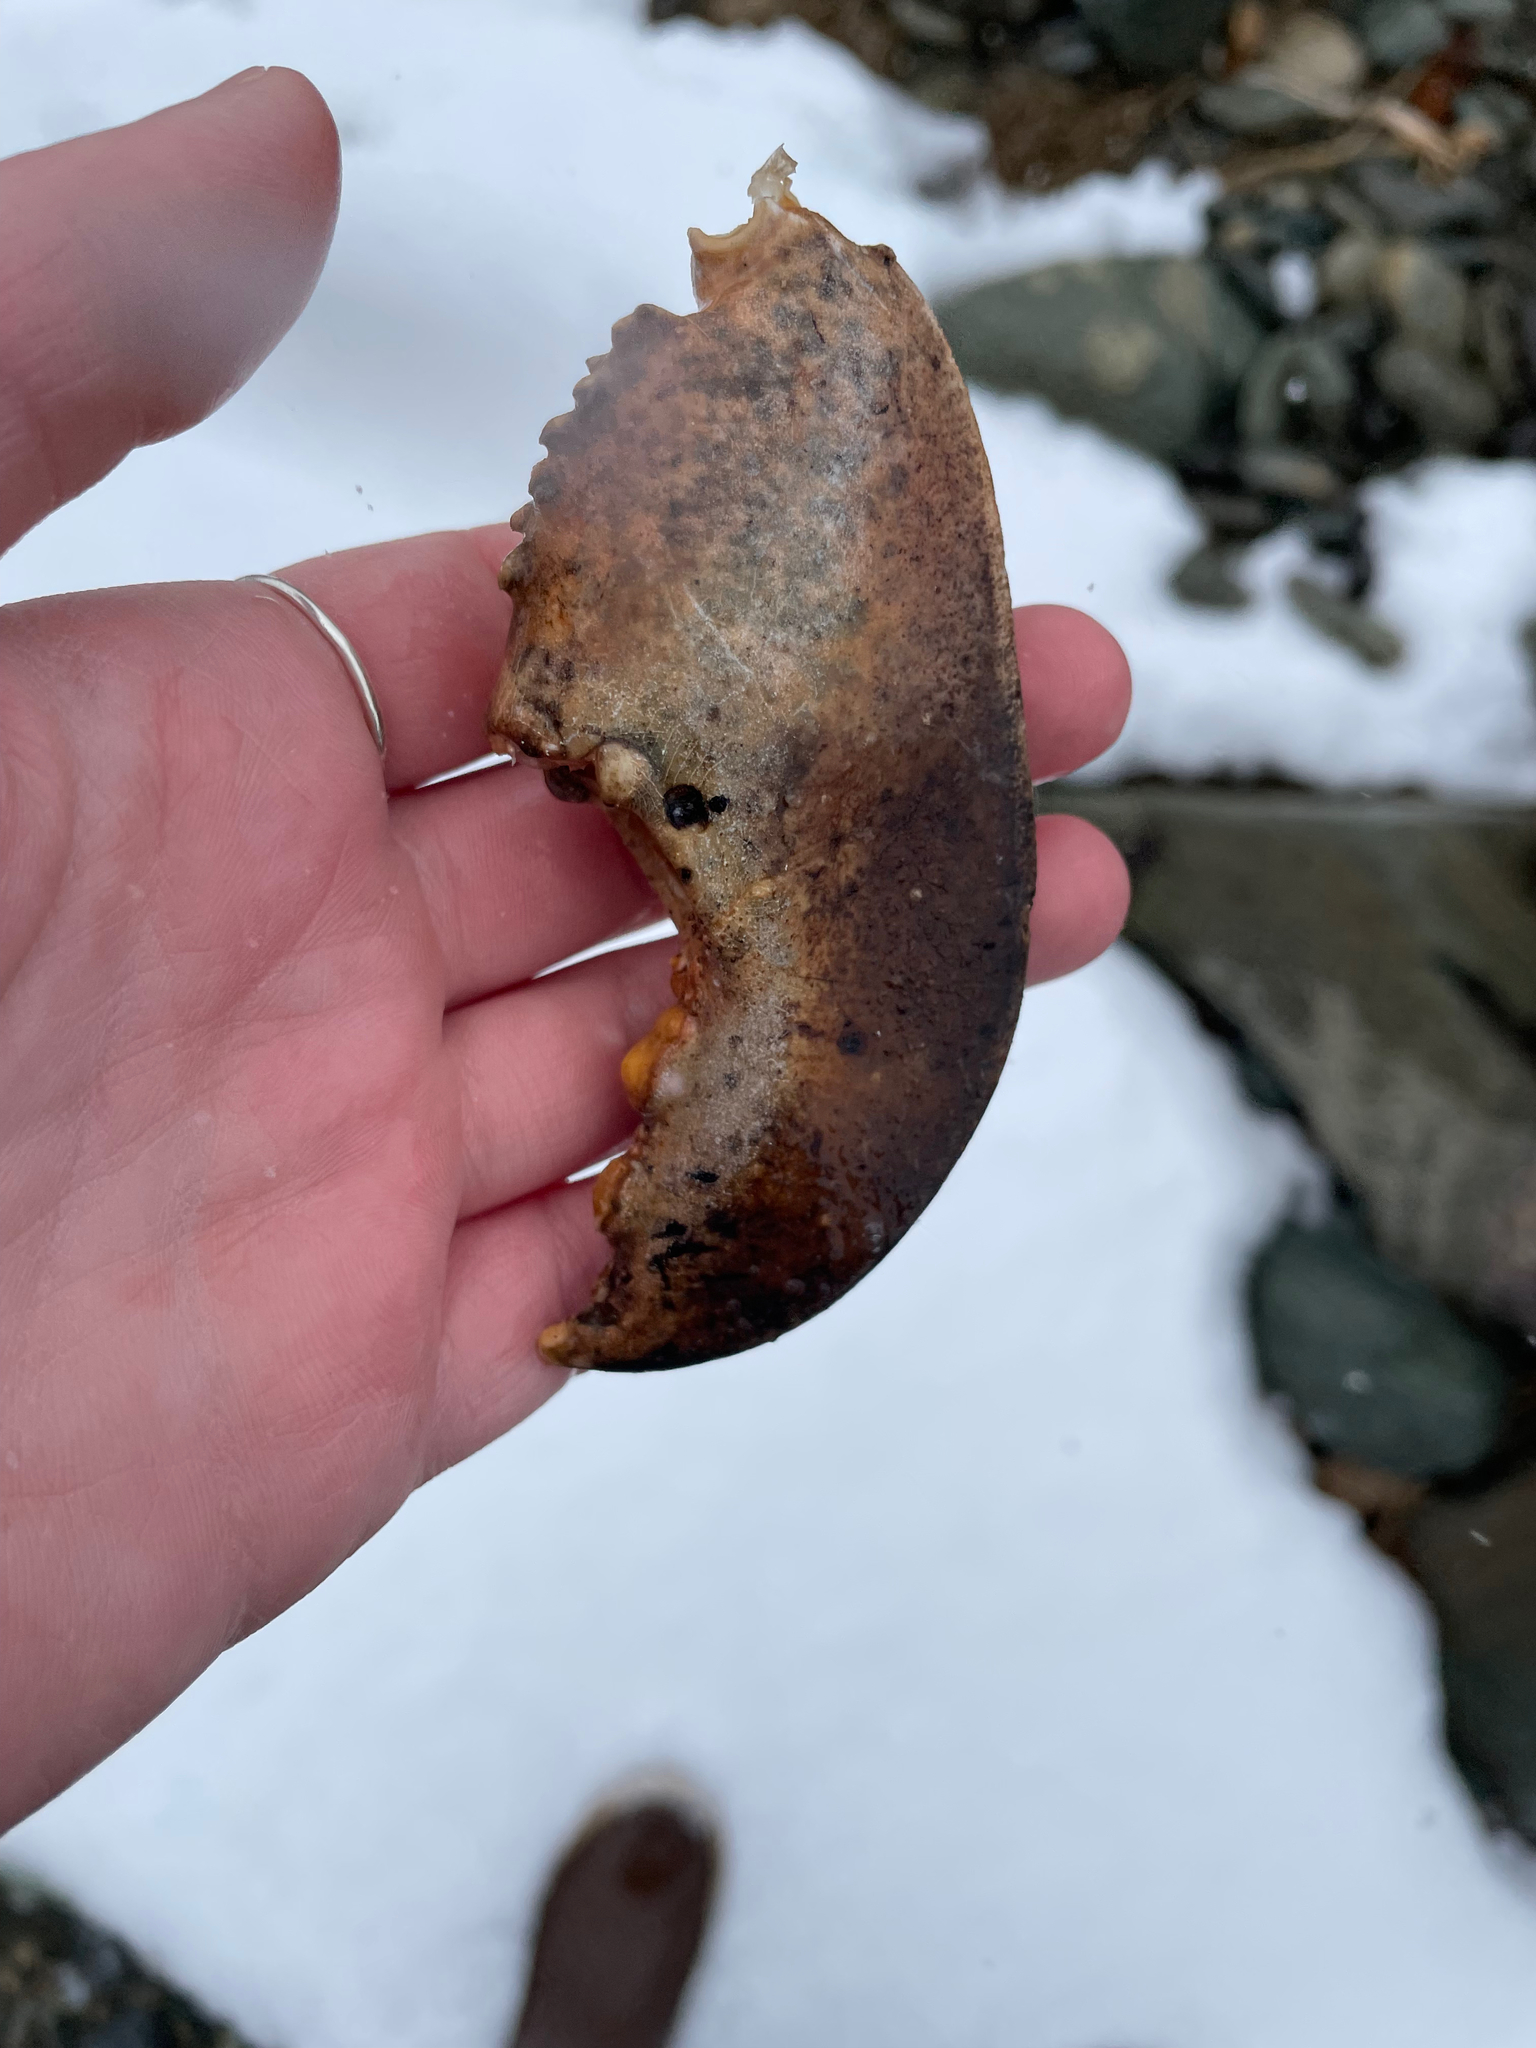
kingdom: Animalia
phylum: Arthropoda
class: Malacostraca
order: Decapoda
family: Nephropidae
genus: Homarus
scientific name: Homarus americanus
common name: American lobster
